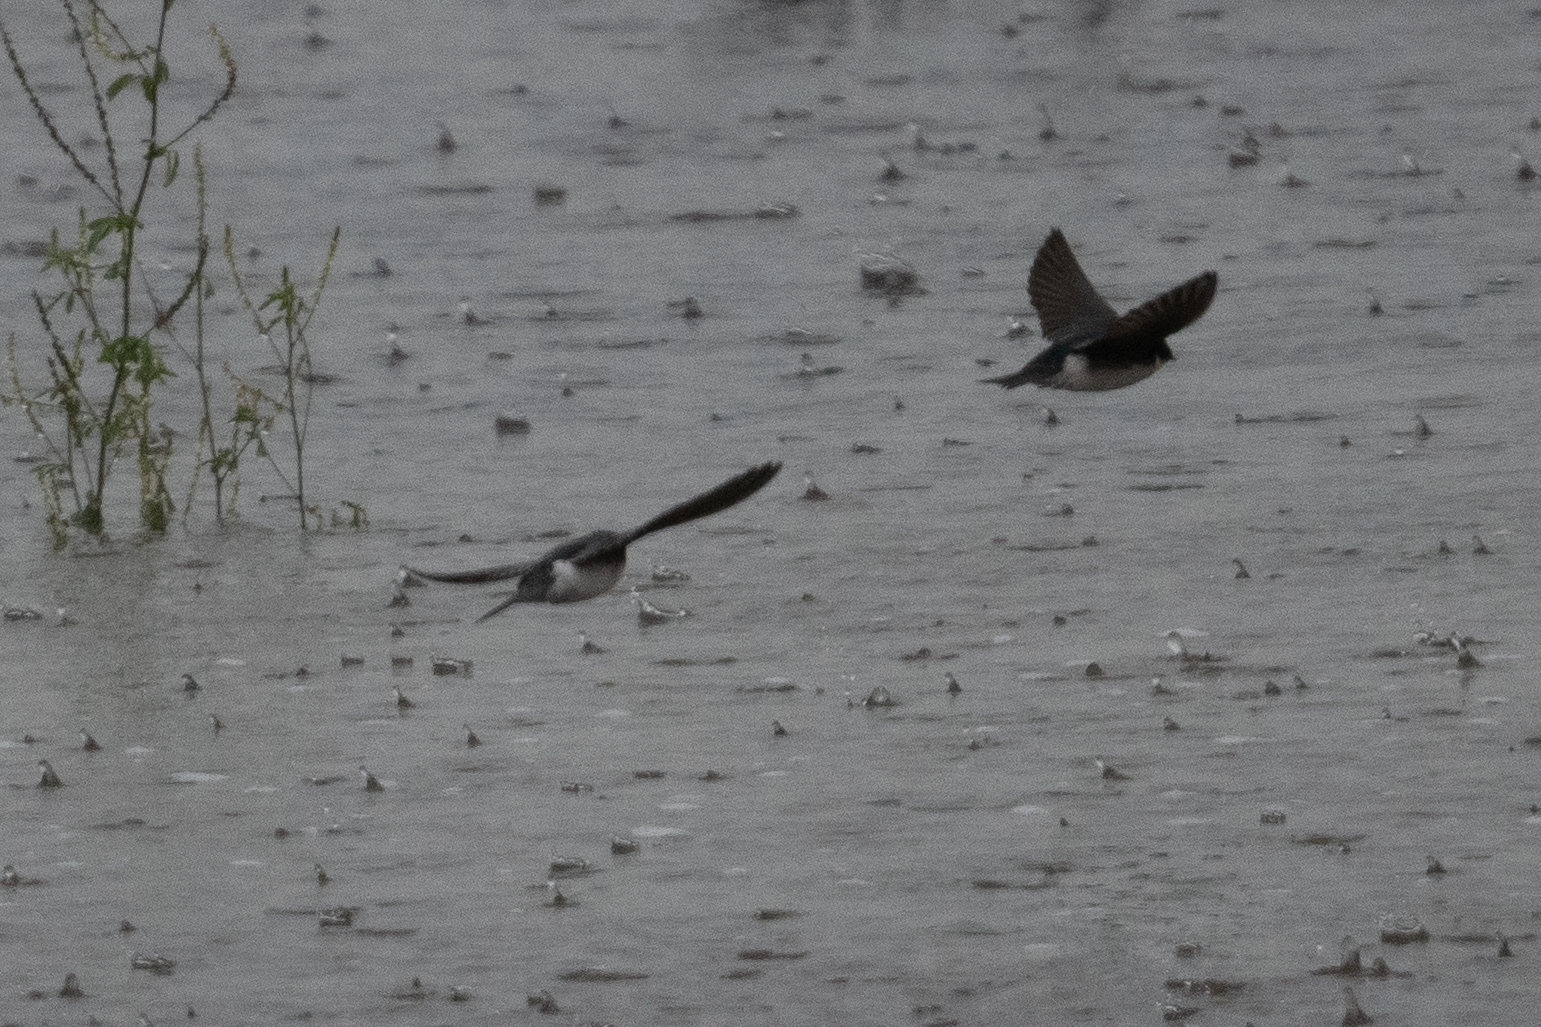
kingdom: Animalia
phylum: Chordata
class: Aves
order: Passeriformes
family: Hirundinidae
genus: Tachycineta
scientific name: Tachycineta bicolor
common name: Tree swallow
